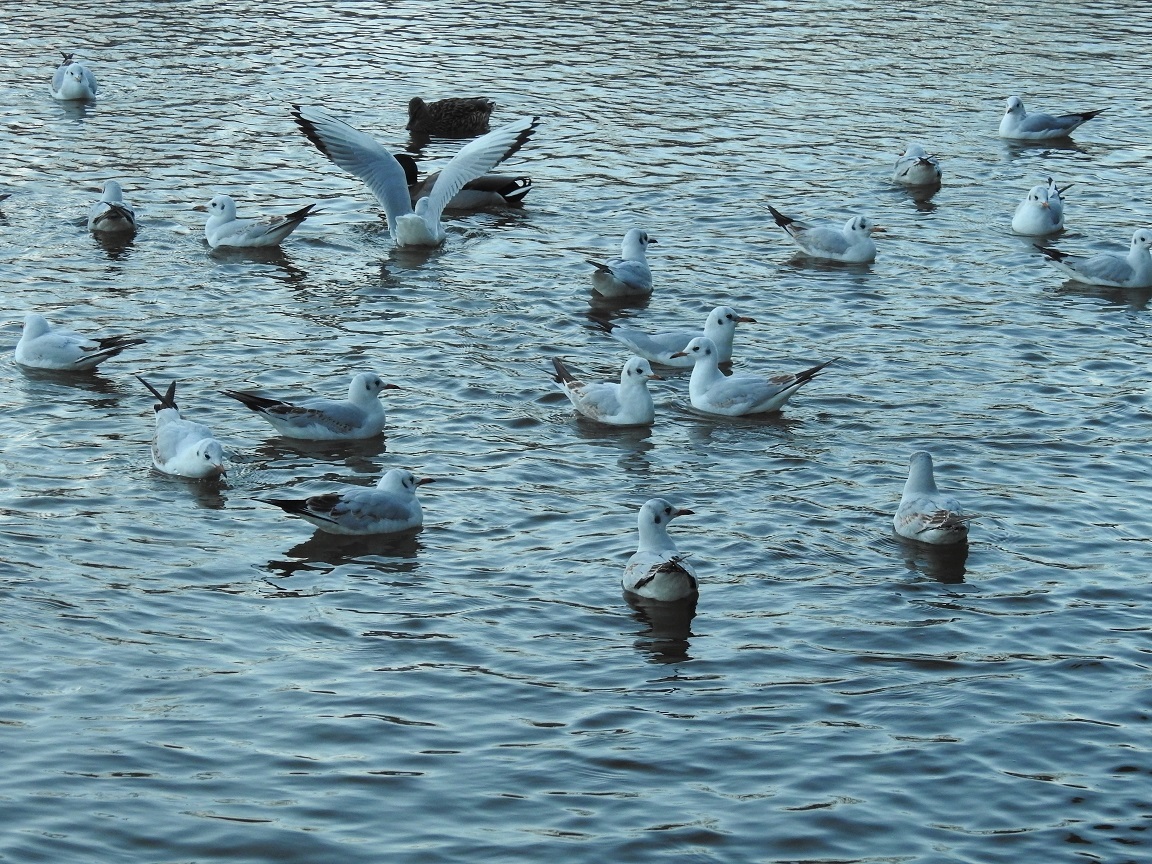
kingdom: Animalia
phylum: Chordata
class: Aves
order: Charadriiformes
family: Laridae
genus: Chroicocephalus
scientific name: Chroicocephalus ridibundus
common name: Black-headed gull
